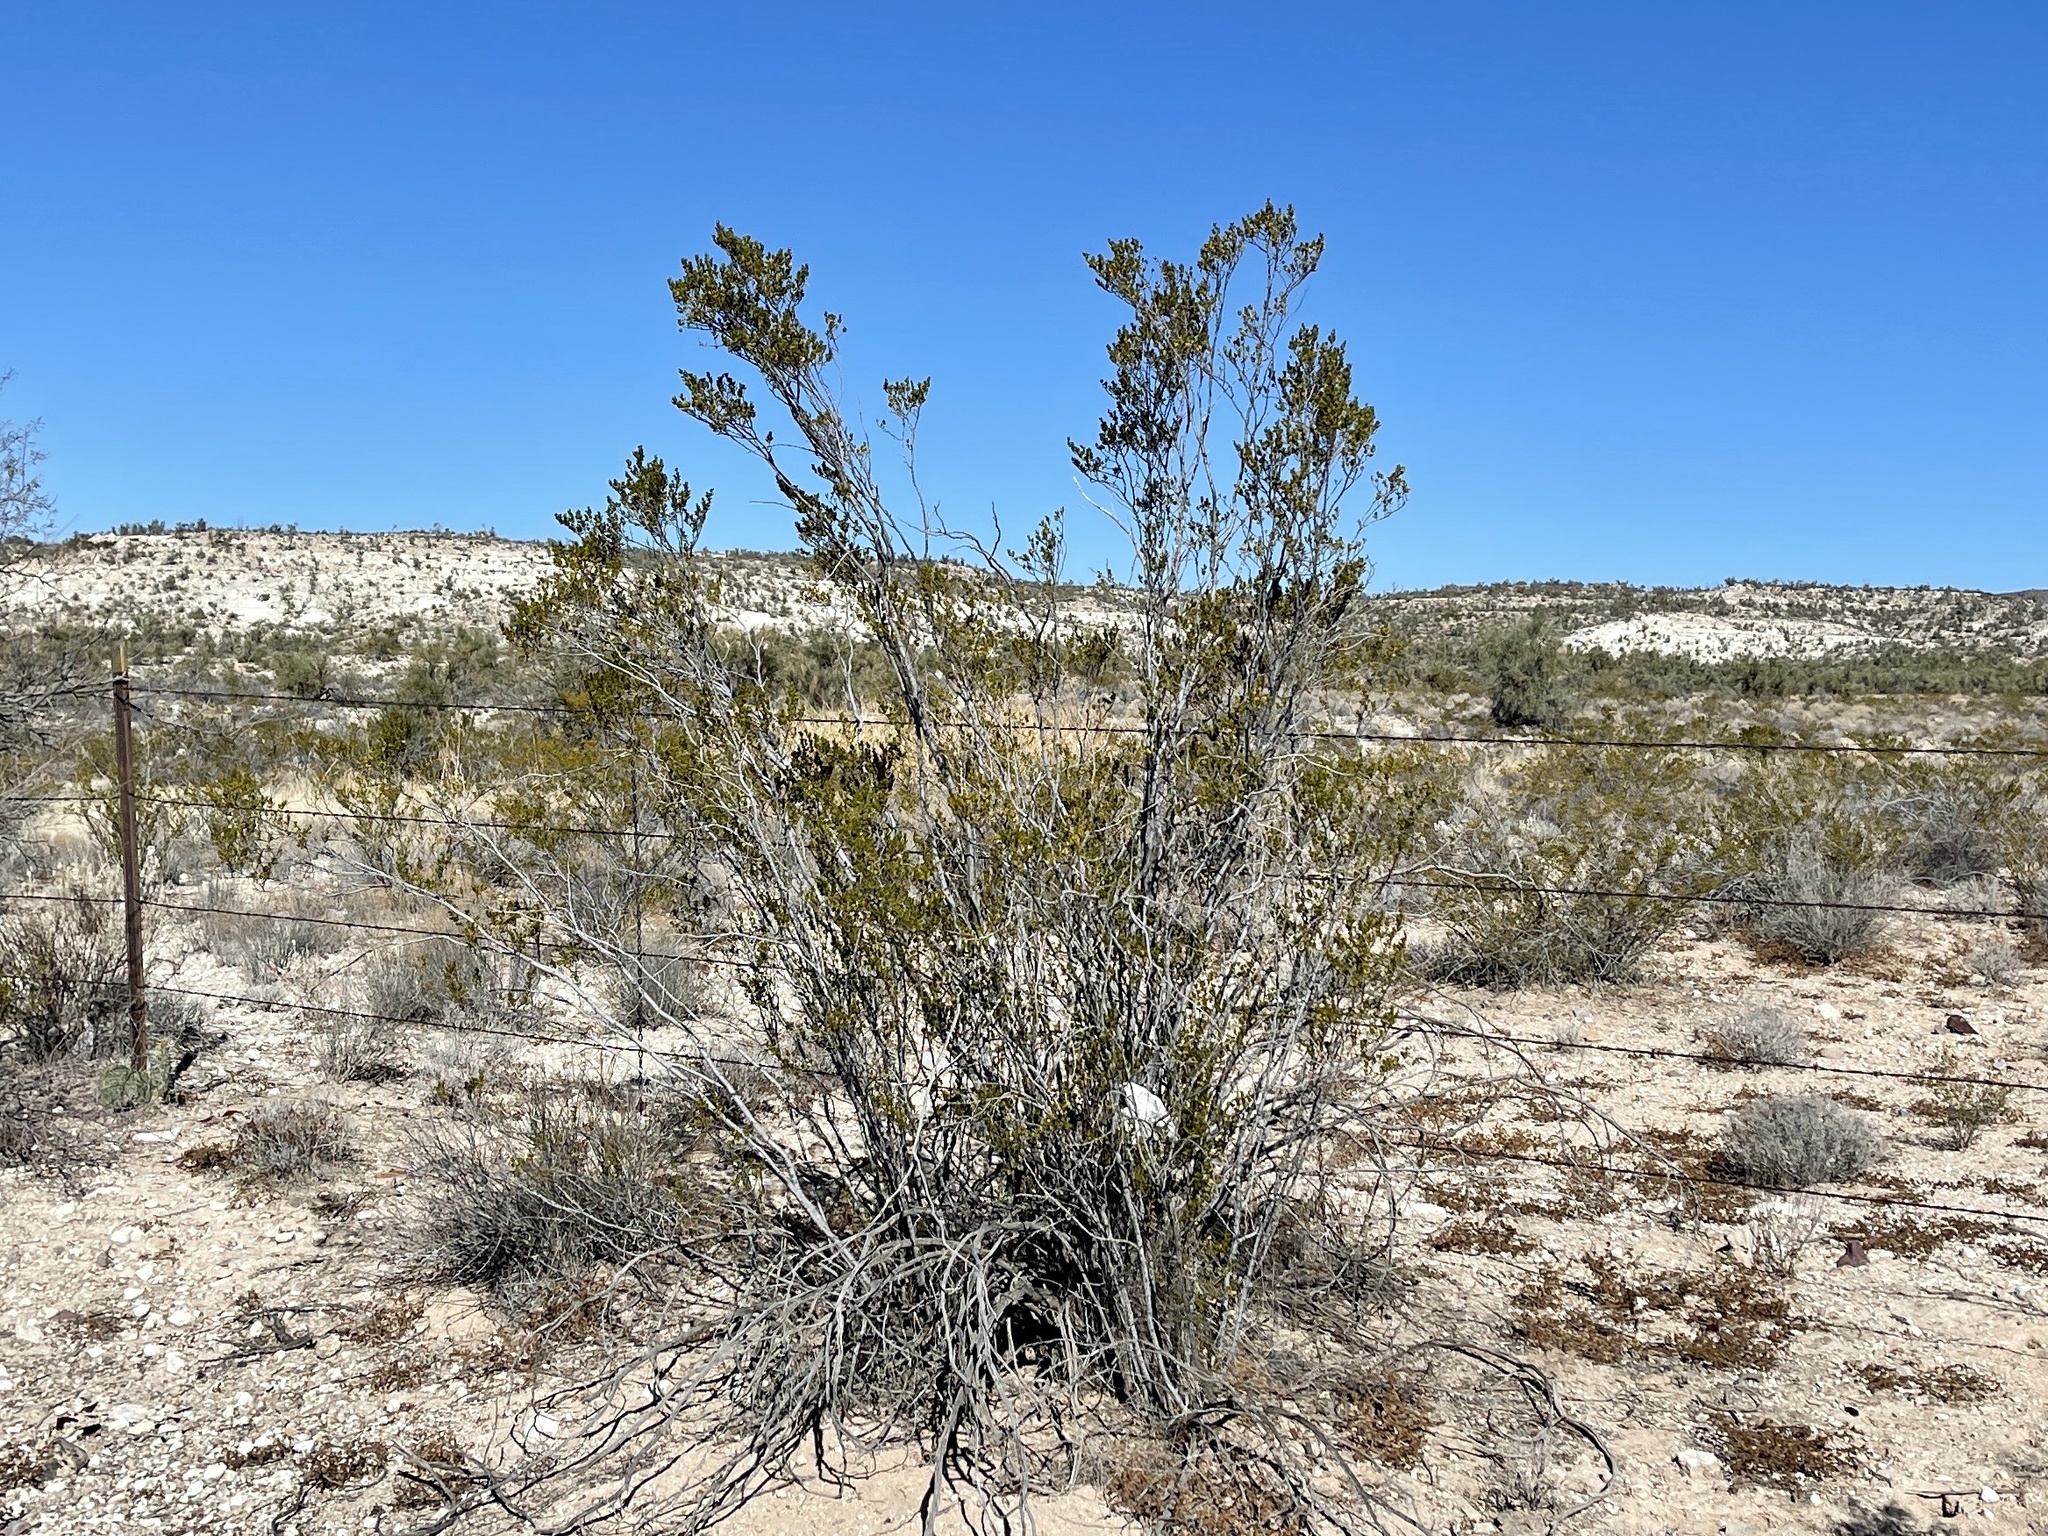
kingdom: Plantae
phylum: Tracheophyta
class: Magnoliopsida
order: Zygophyllales
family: Zygophyllaceae
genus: Larrea
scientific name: Larrea tridentata
